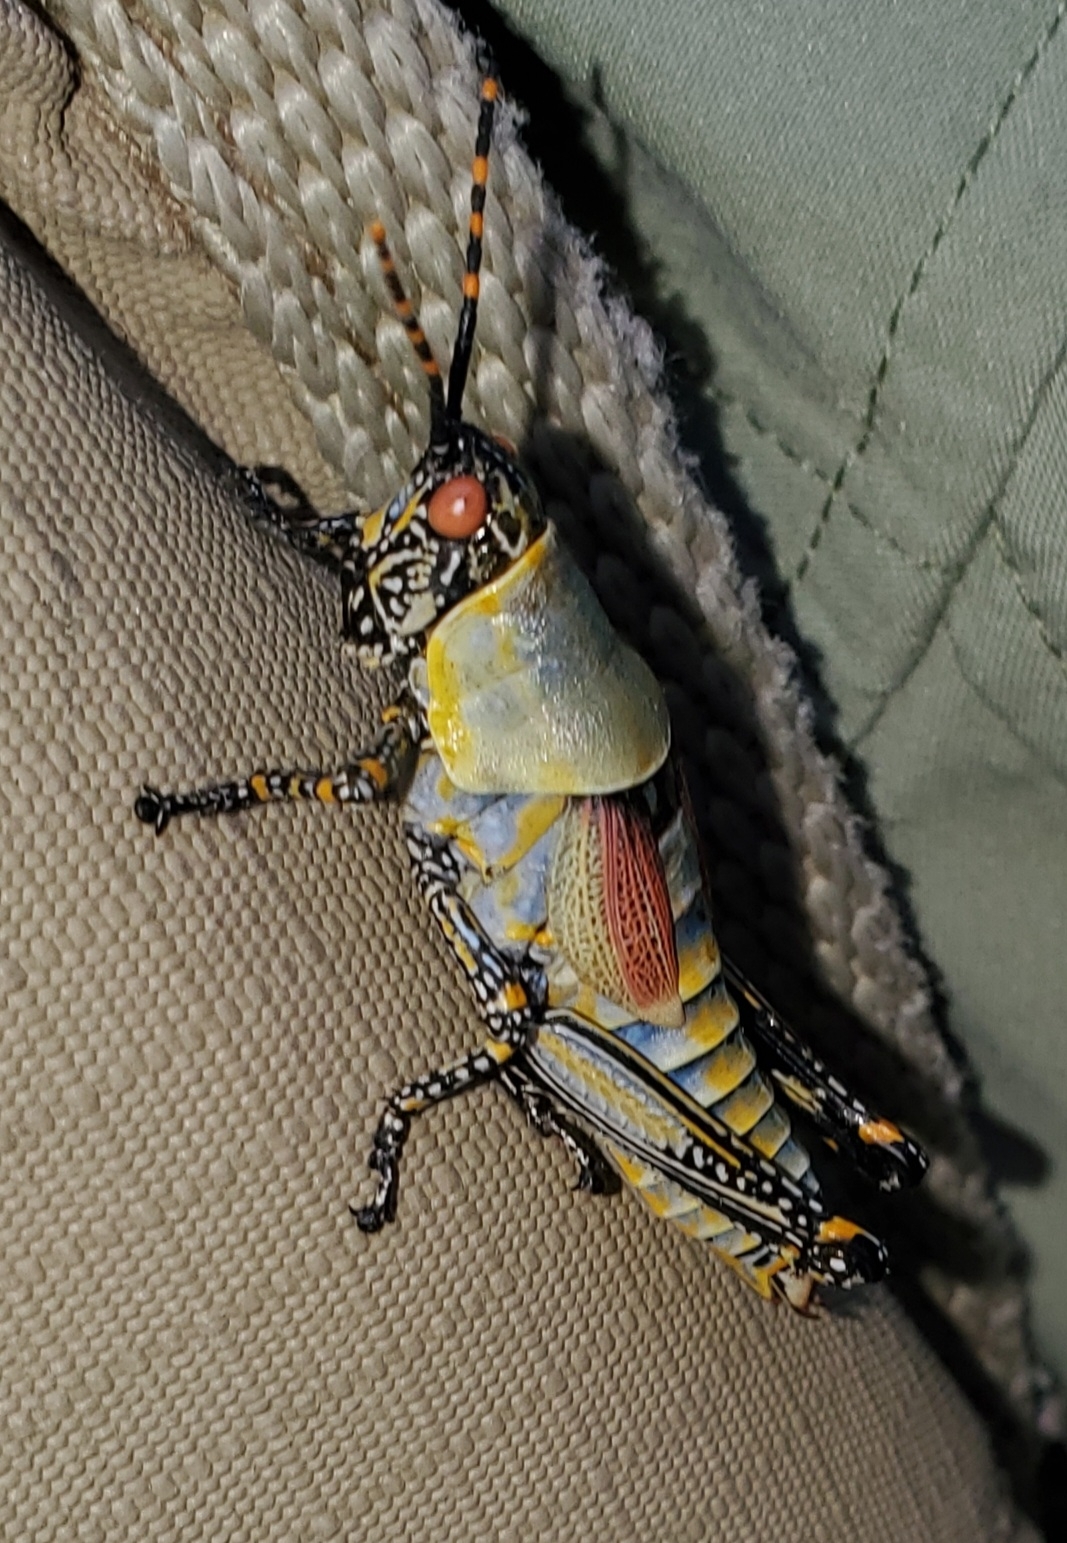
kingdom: Animalia
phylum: Arthropoda
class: Insecta
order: Orthoptera
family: Pyrgomorphidae
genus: Zonocerus
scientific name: Zonocerus elegans
